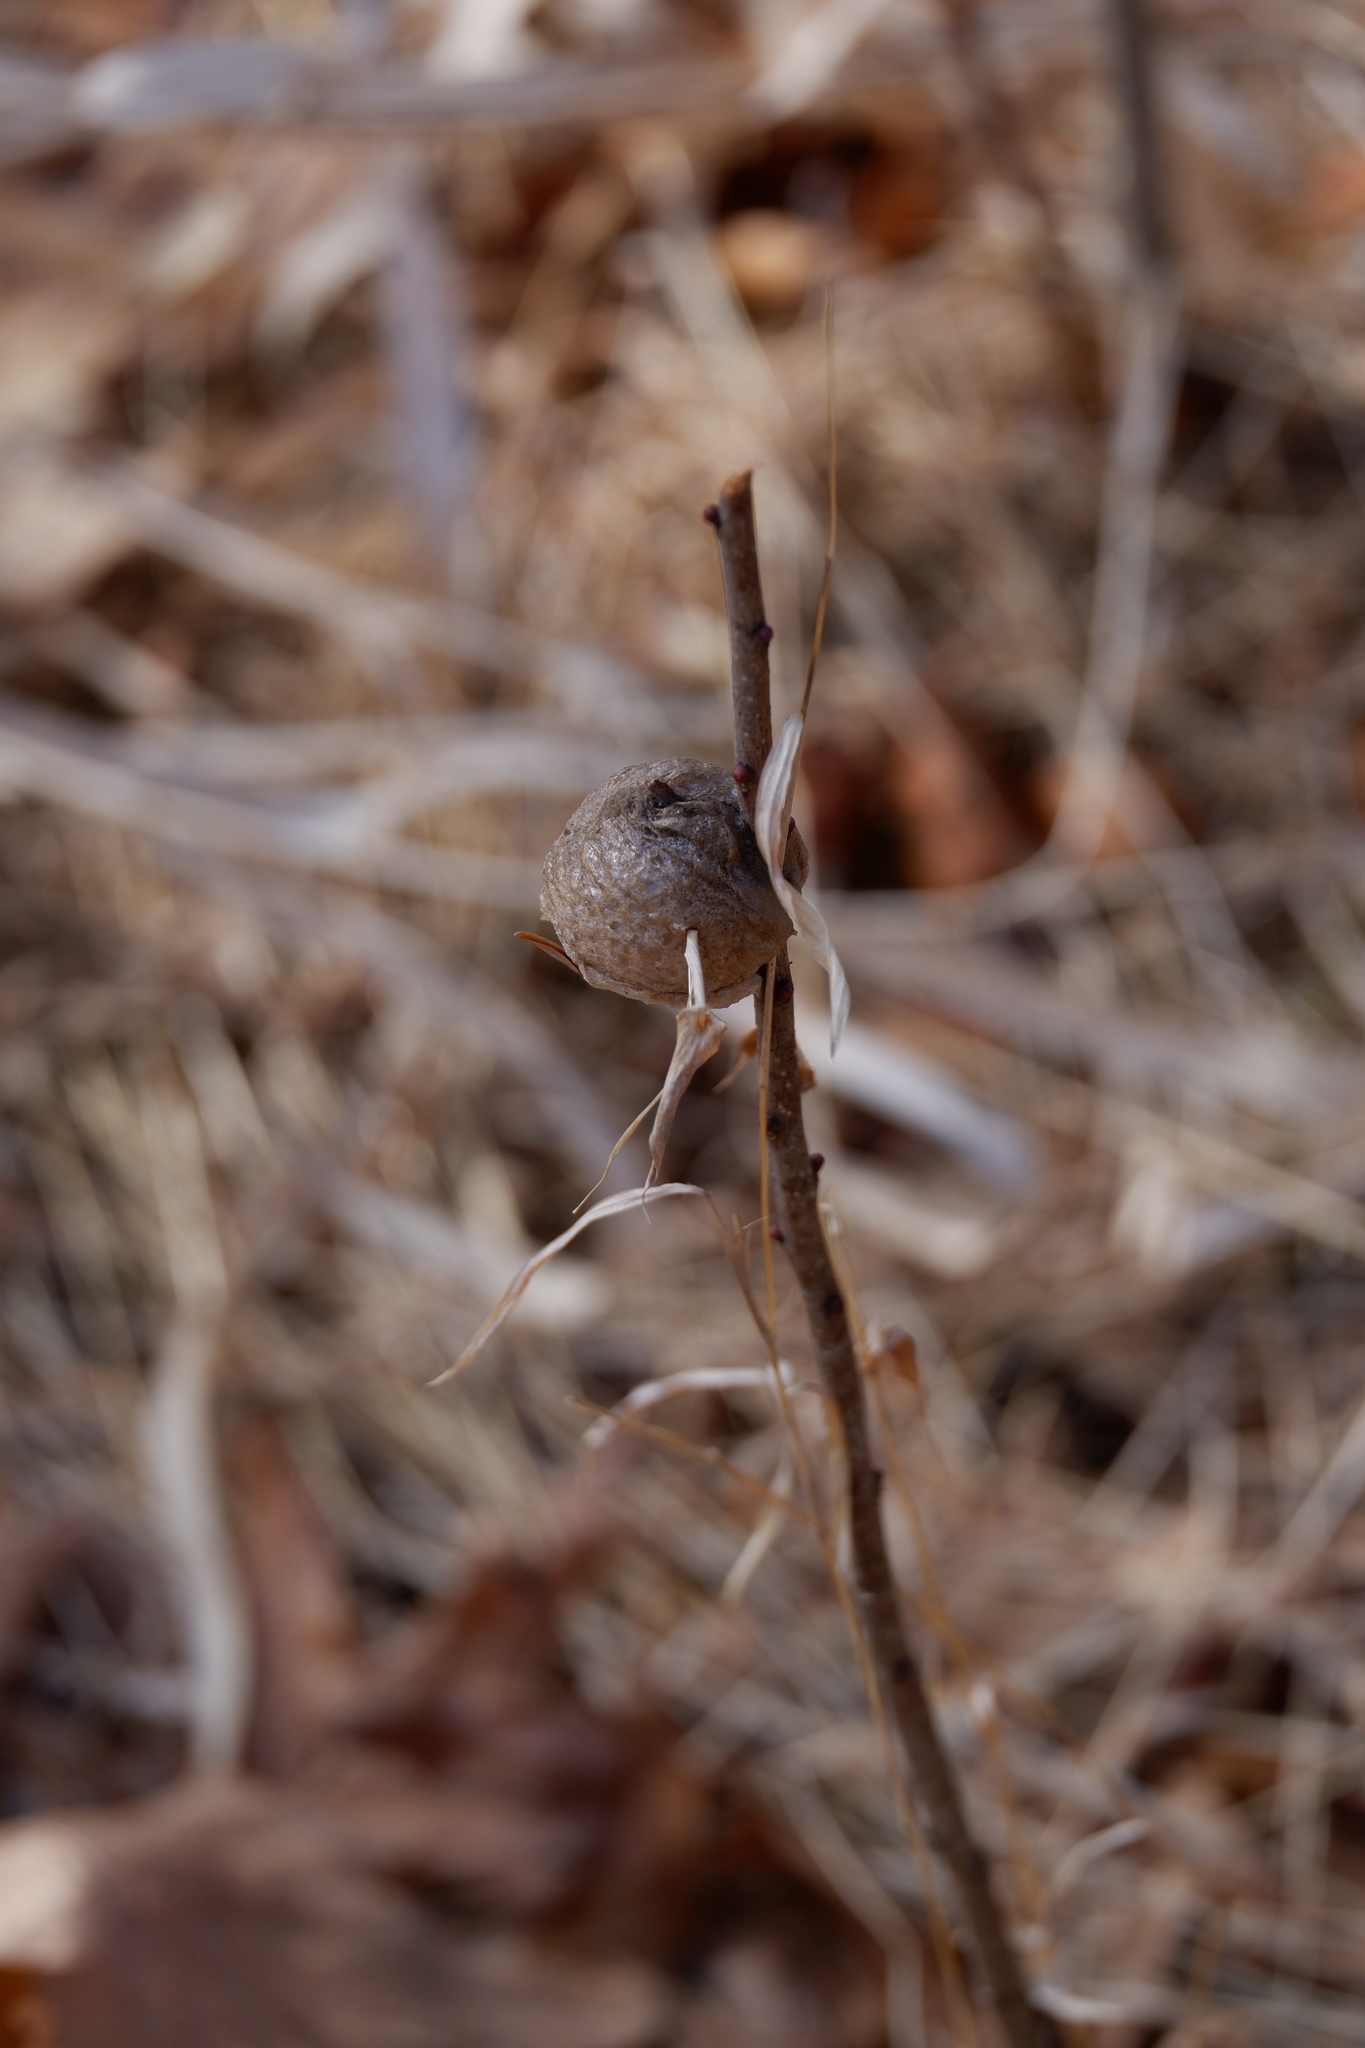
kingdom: Animalia
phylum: Arthropoda
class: Insecta
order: Mantodea
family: Mantidae
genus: Tenodera
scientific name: Tenodera sinensis
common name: Chinese mantis
